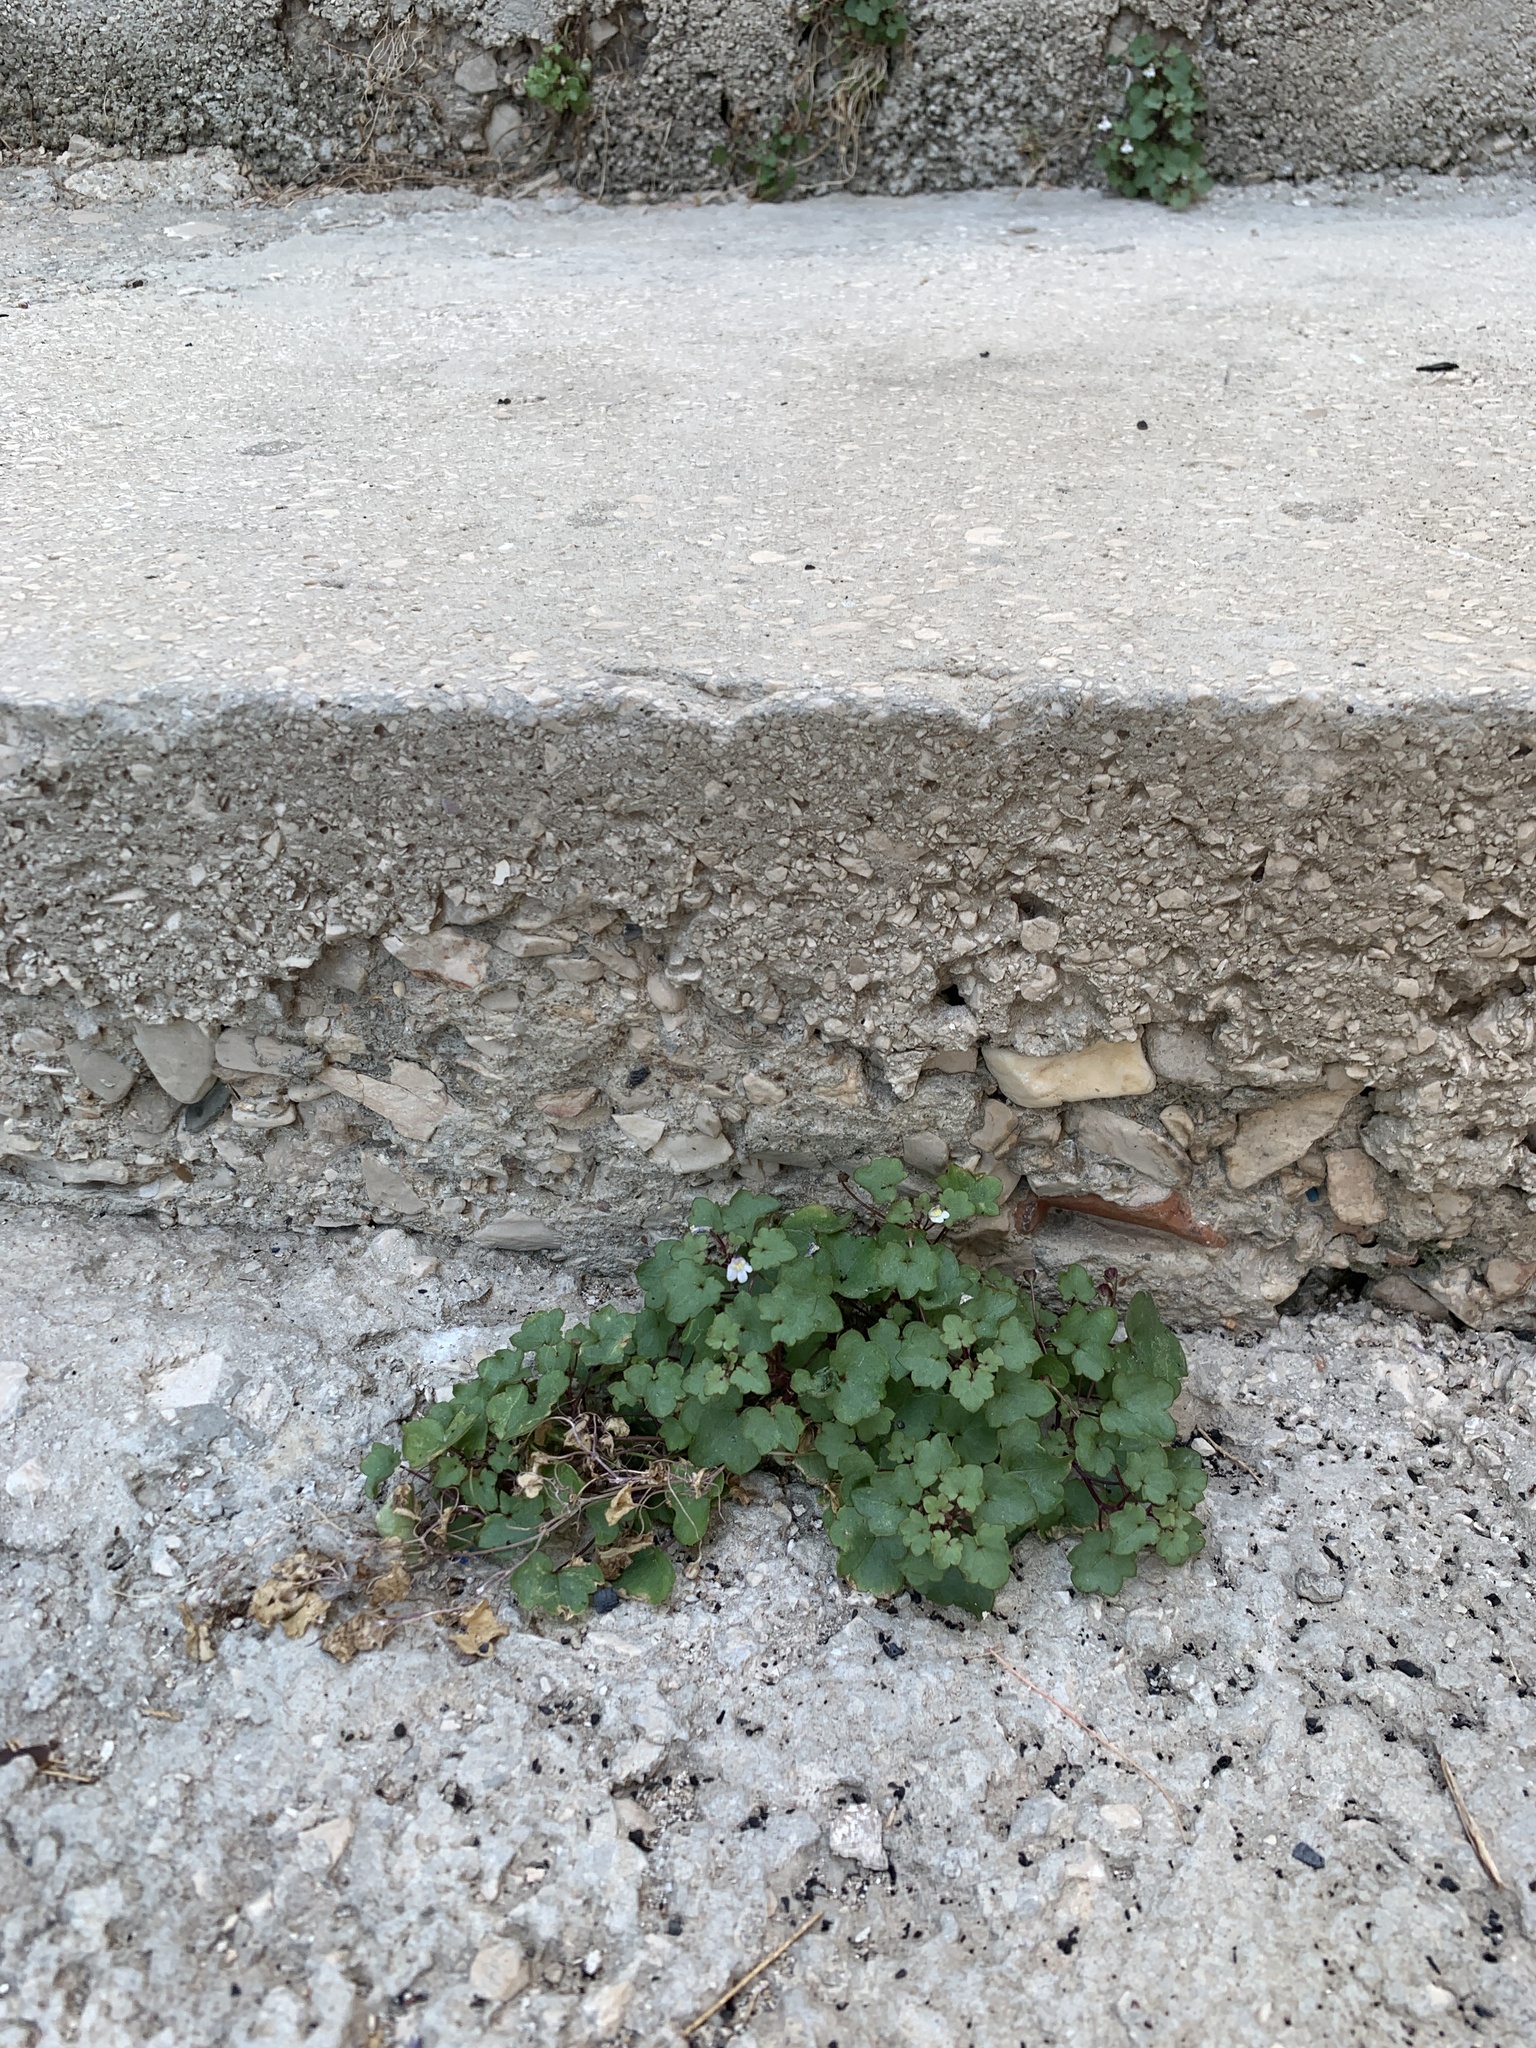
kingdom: Plantae
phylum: Tracheophyta
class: Magnoliopsida
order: Lamiales
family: Plantaginaceae
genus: Cymbalaria
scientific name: Cymbalaria muralis
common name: Ivy-leaved toadflax
